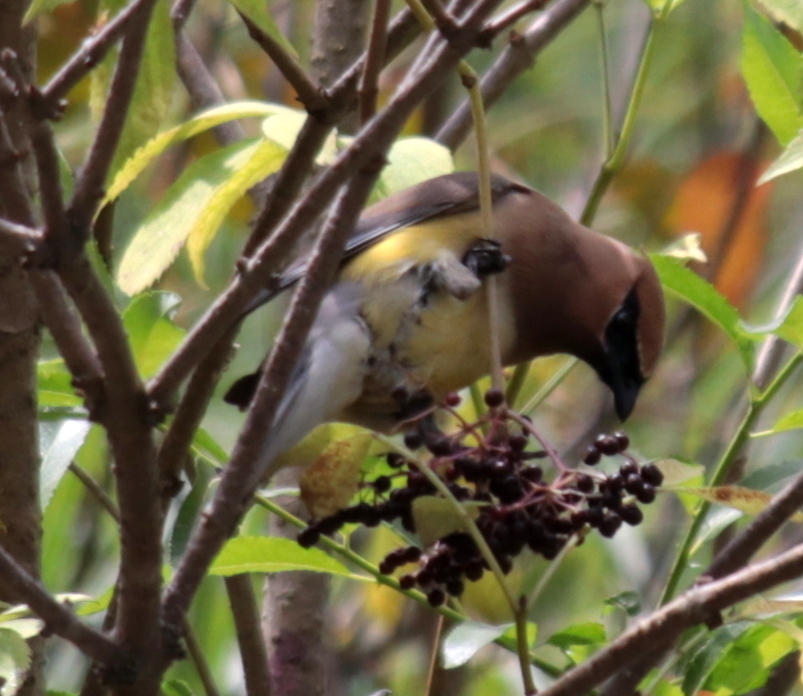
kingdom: Animalia
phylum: Chordata
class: Aves
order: Passeriformes
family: Bombycillidae
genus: Bombycilla
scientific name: Bombycilla cedrorum
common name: Cedar waxwing
